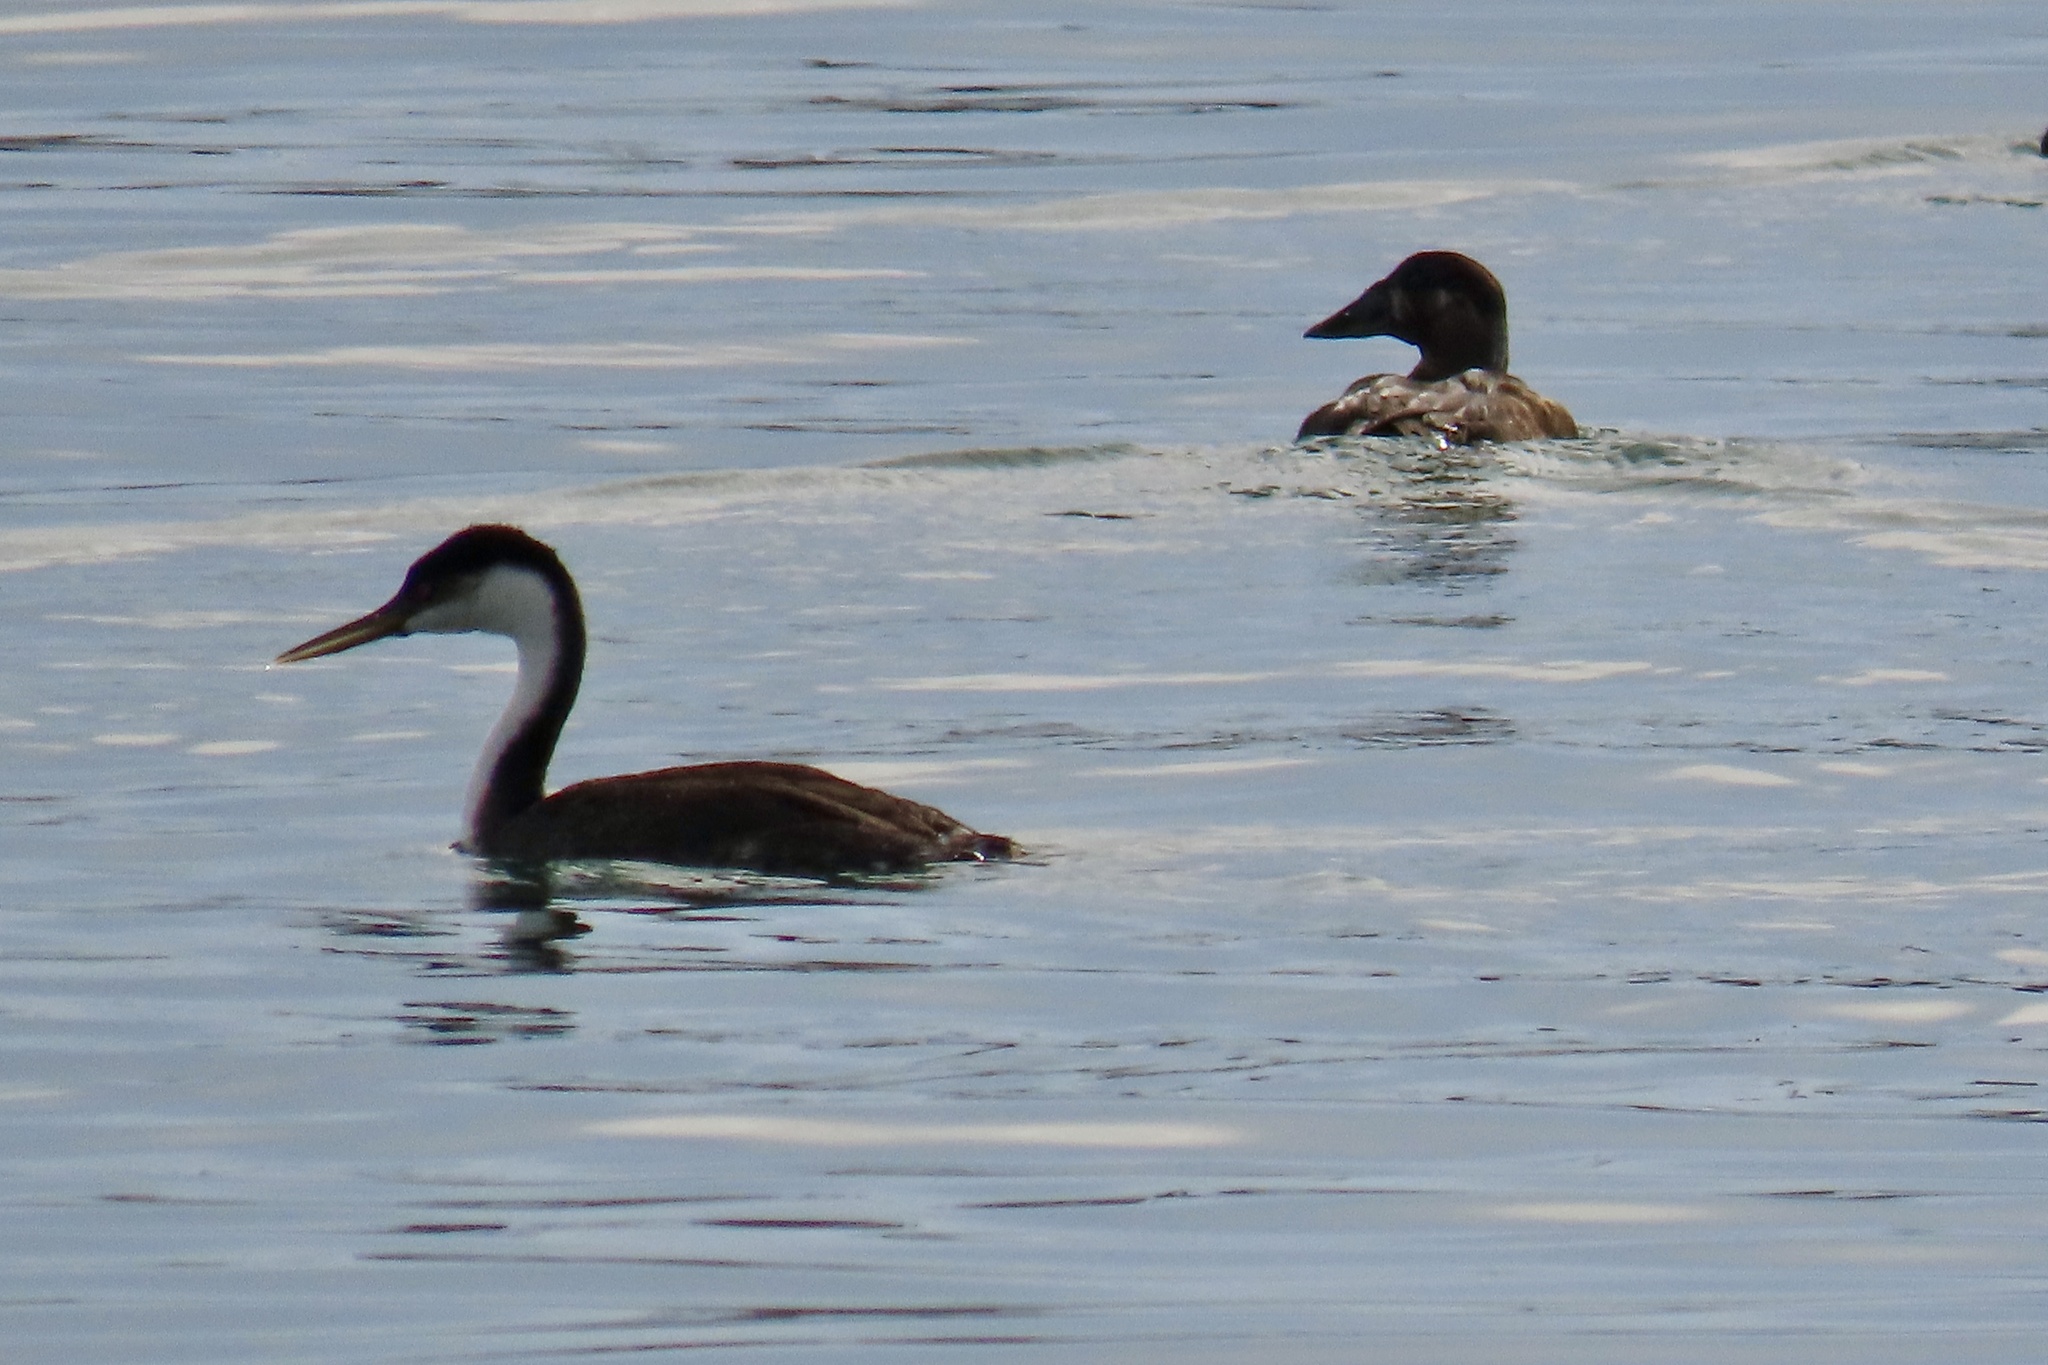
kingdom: Animalia
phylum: Chordata
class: Aves
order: Podicipediformes
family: Podicipedidae
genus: Aechmophorus
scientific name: Aechmophorus occidentalis
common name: Western grebe
